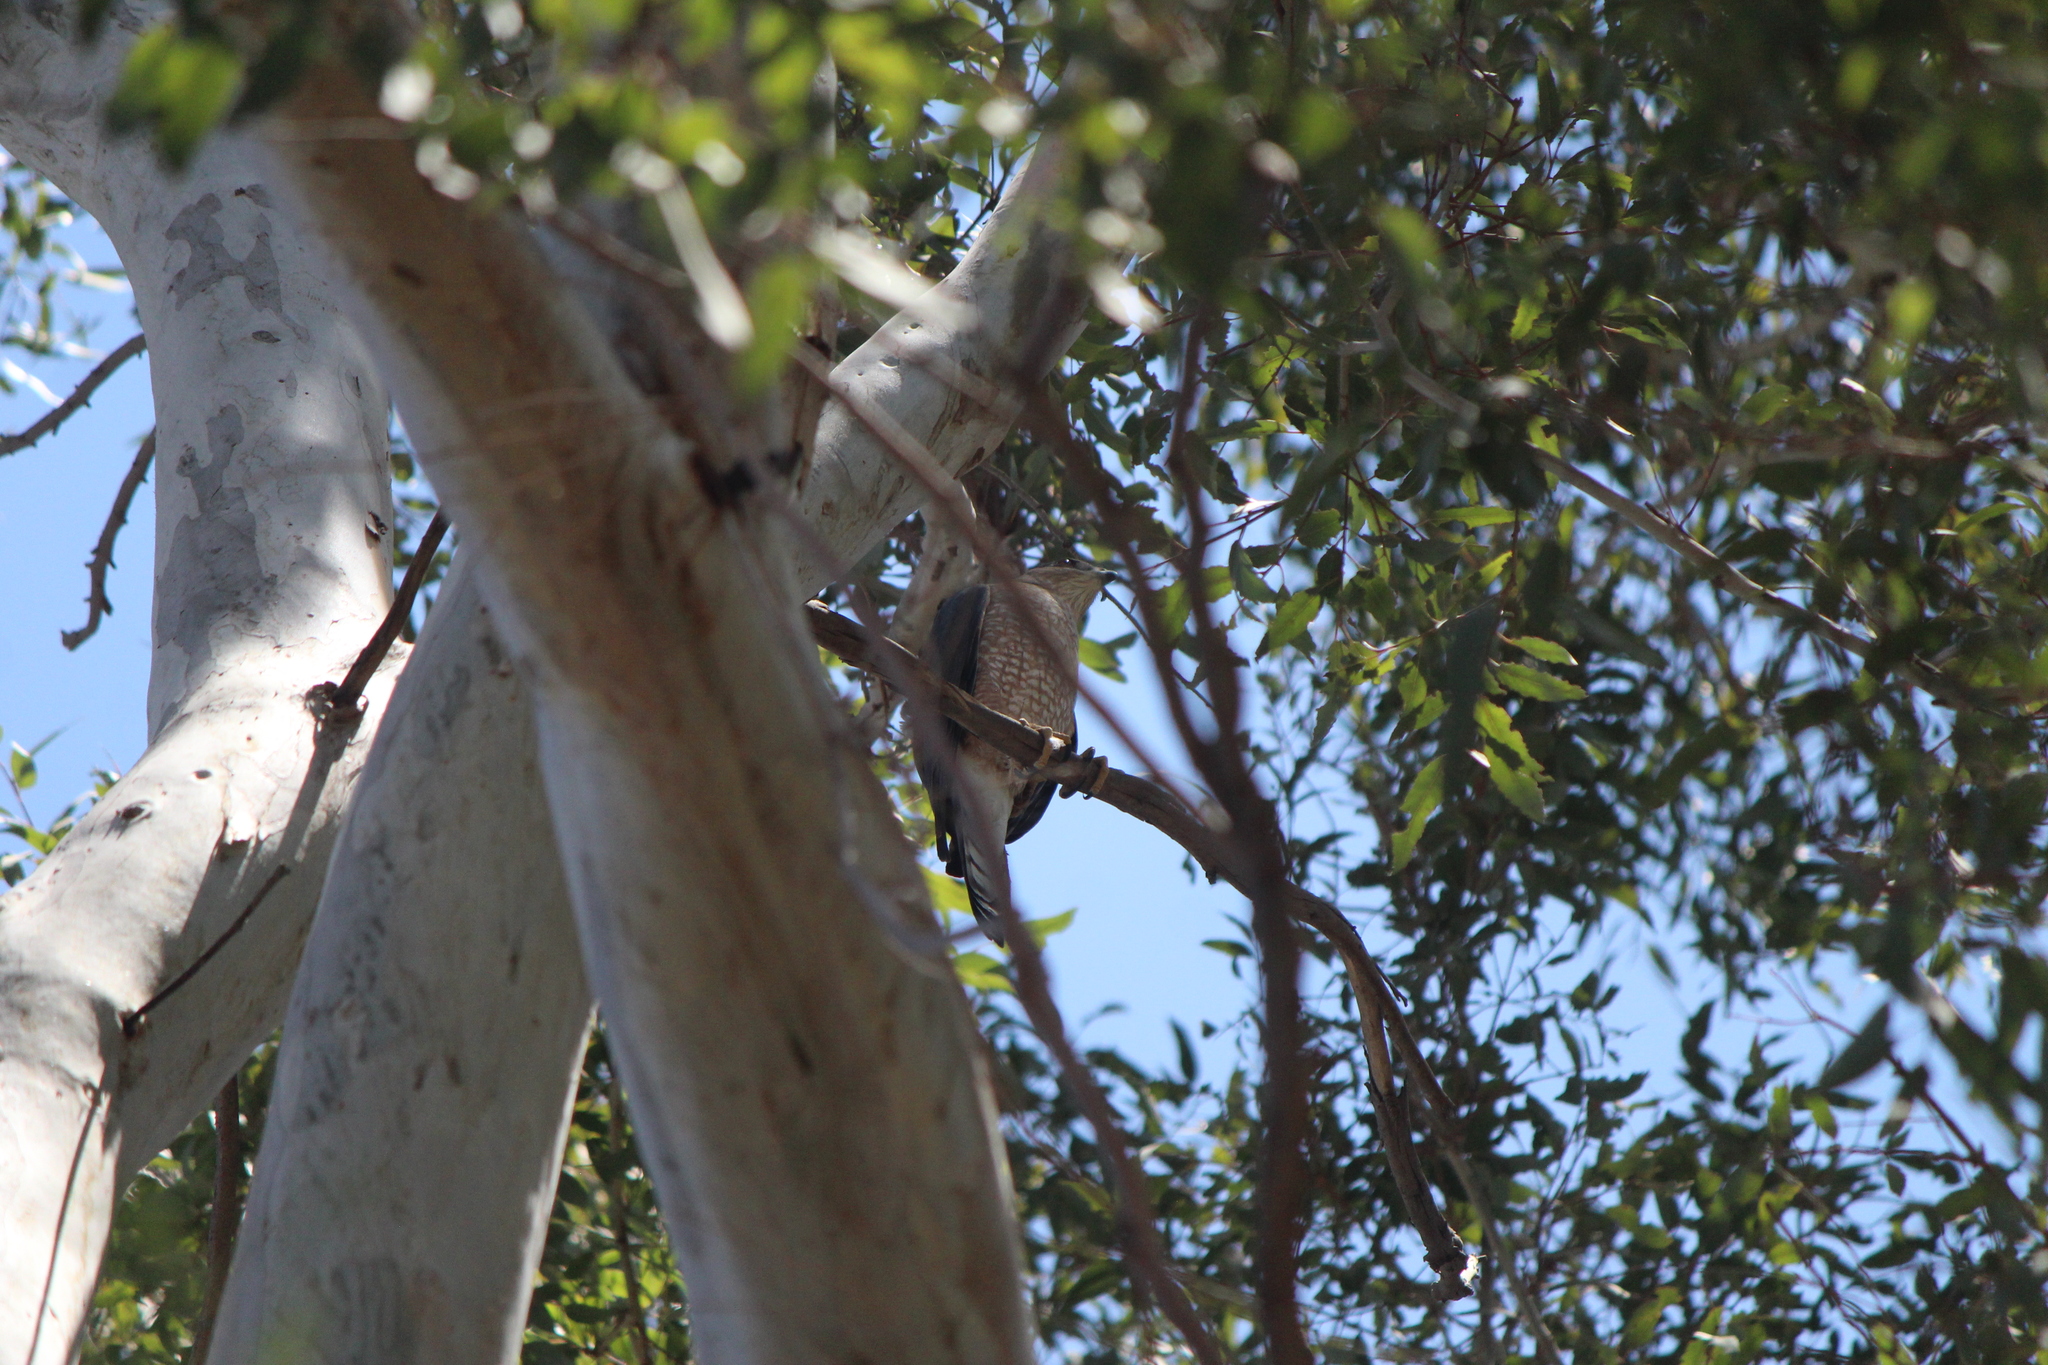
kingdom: Animalia
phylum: Chordata
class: Aves
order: Accipitriformes
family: Accipitridae
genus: Accipiter
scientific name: Accipiter cooperii
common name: Cooper's hawk
